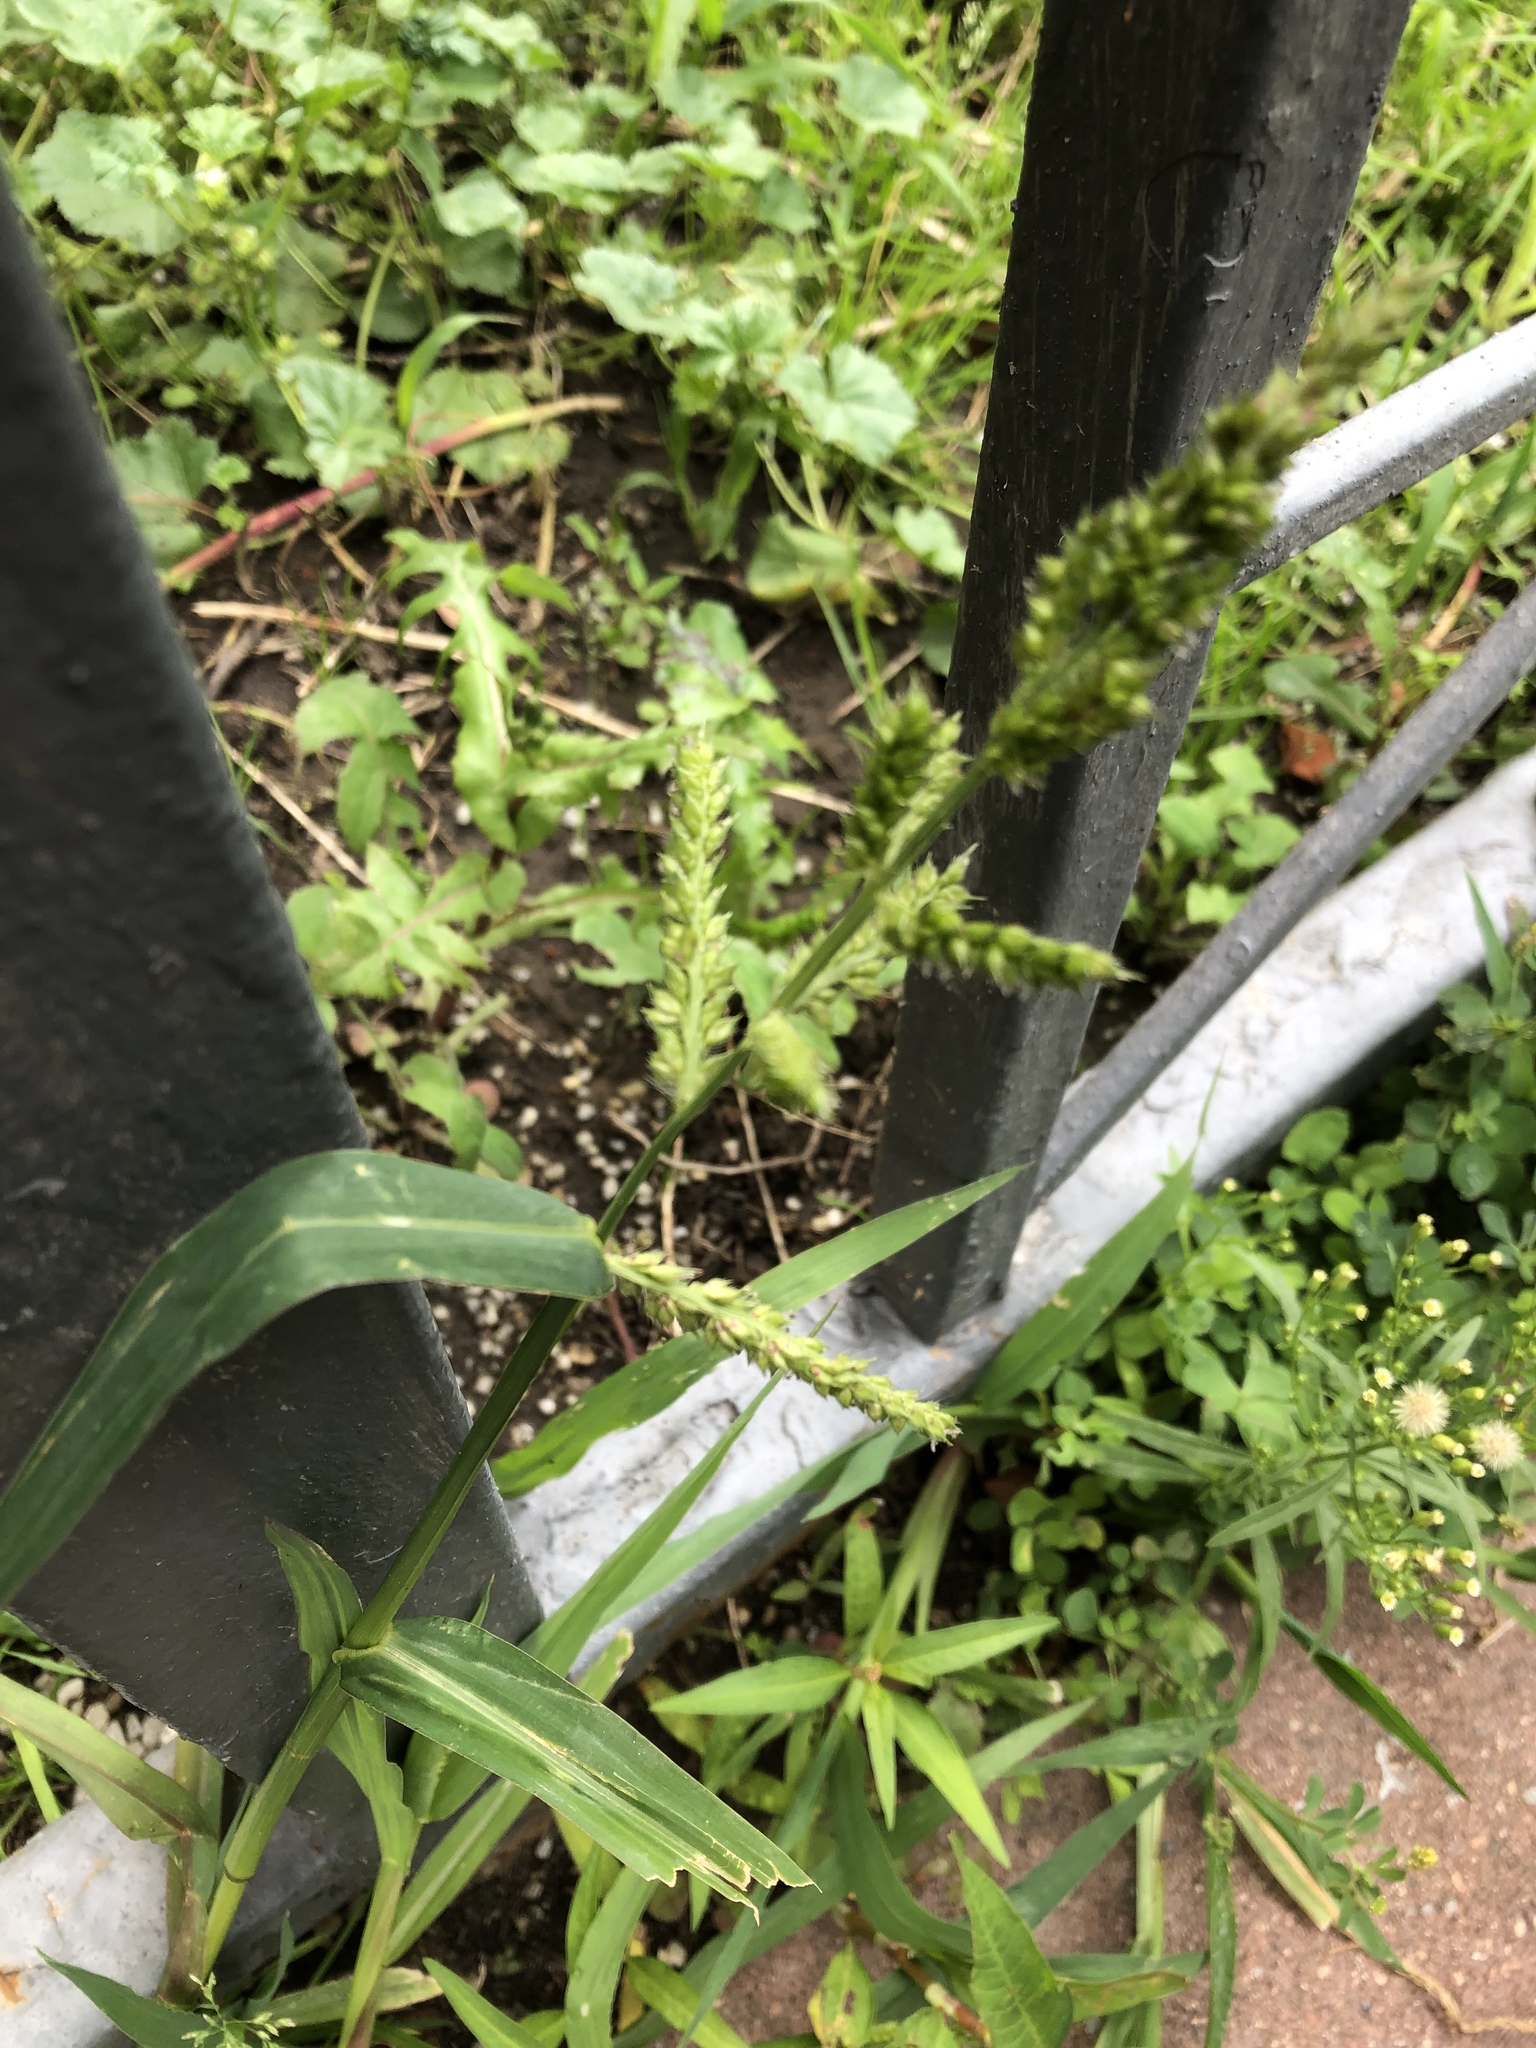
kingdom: Plantae
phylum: Tracheophyta
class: Liliopsida
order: Poales
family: Poaceae
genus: Echinochloa
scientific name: Echinochloa crus-galli
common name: Cockspur
